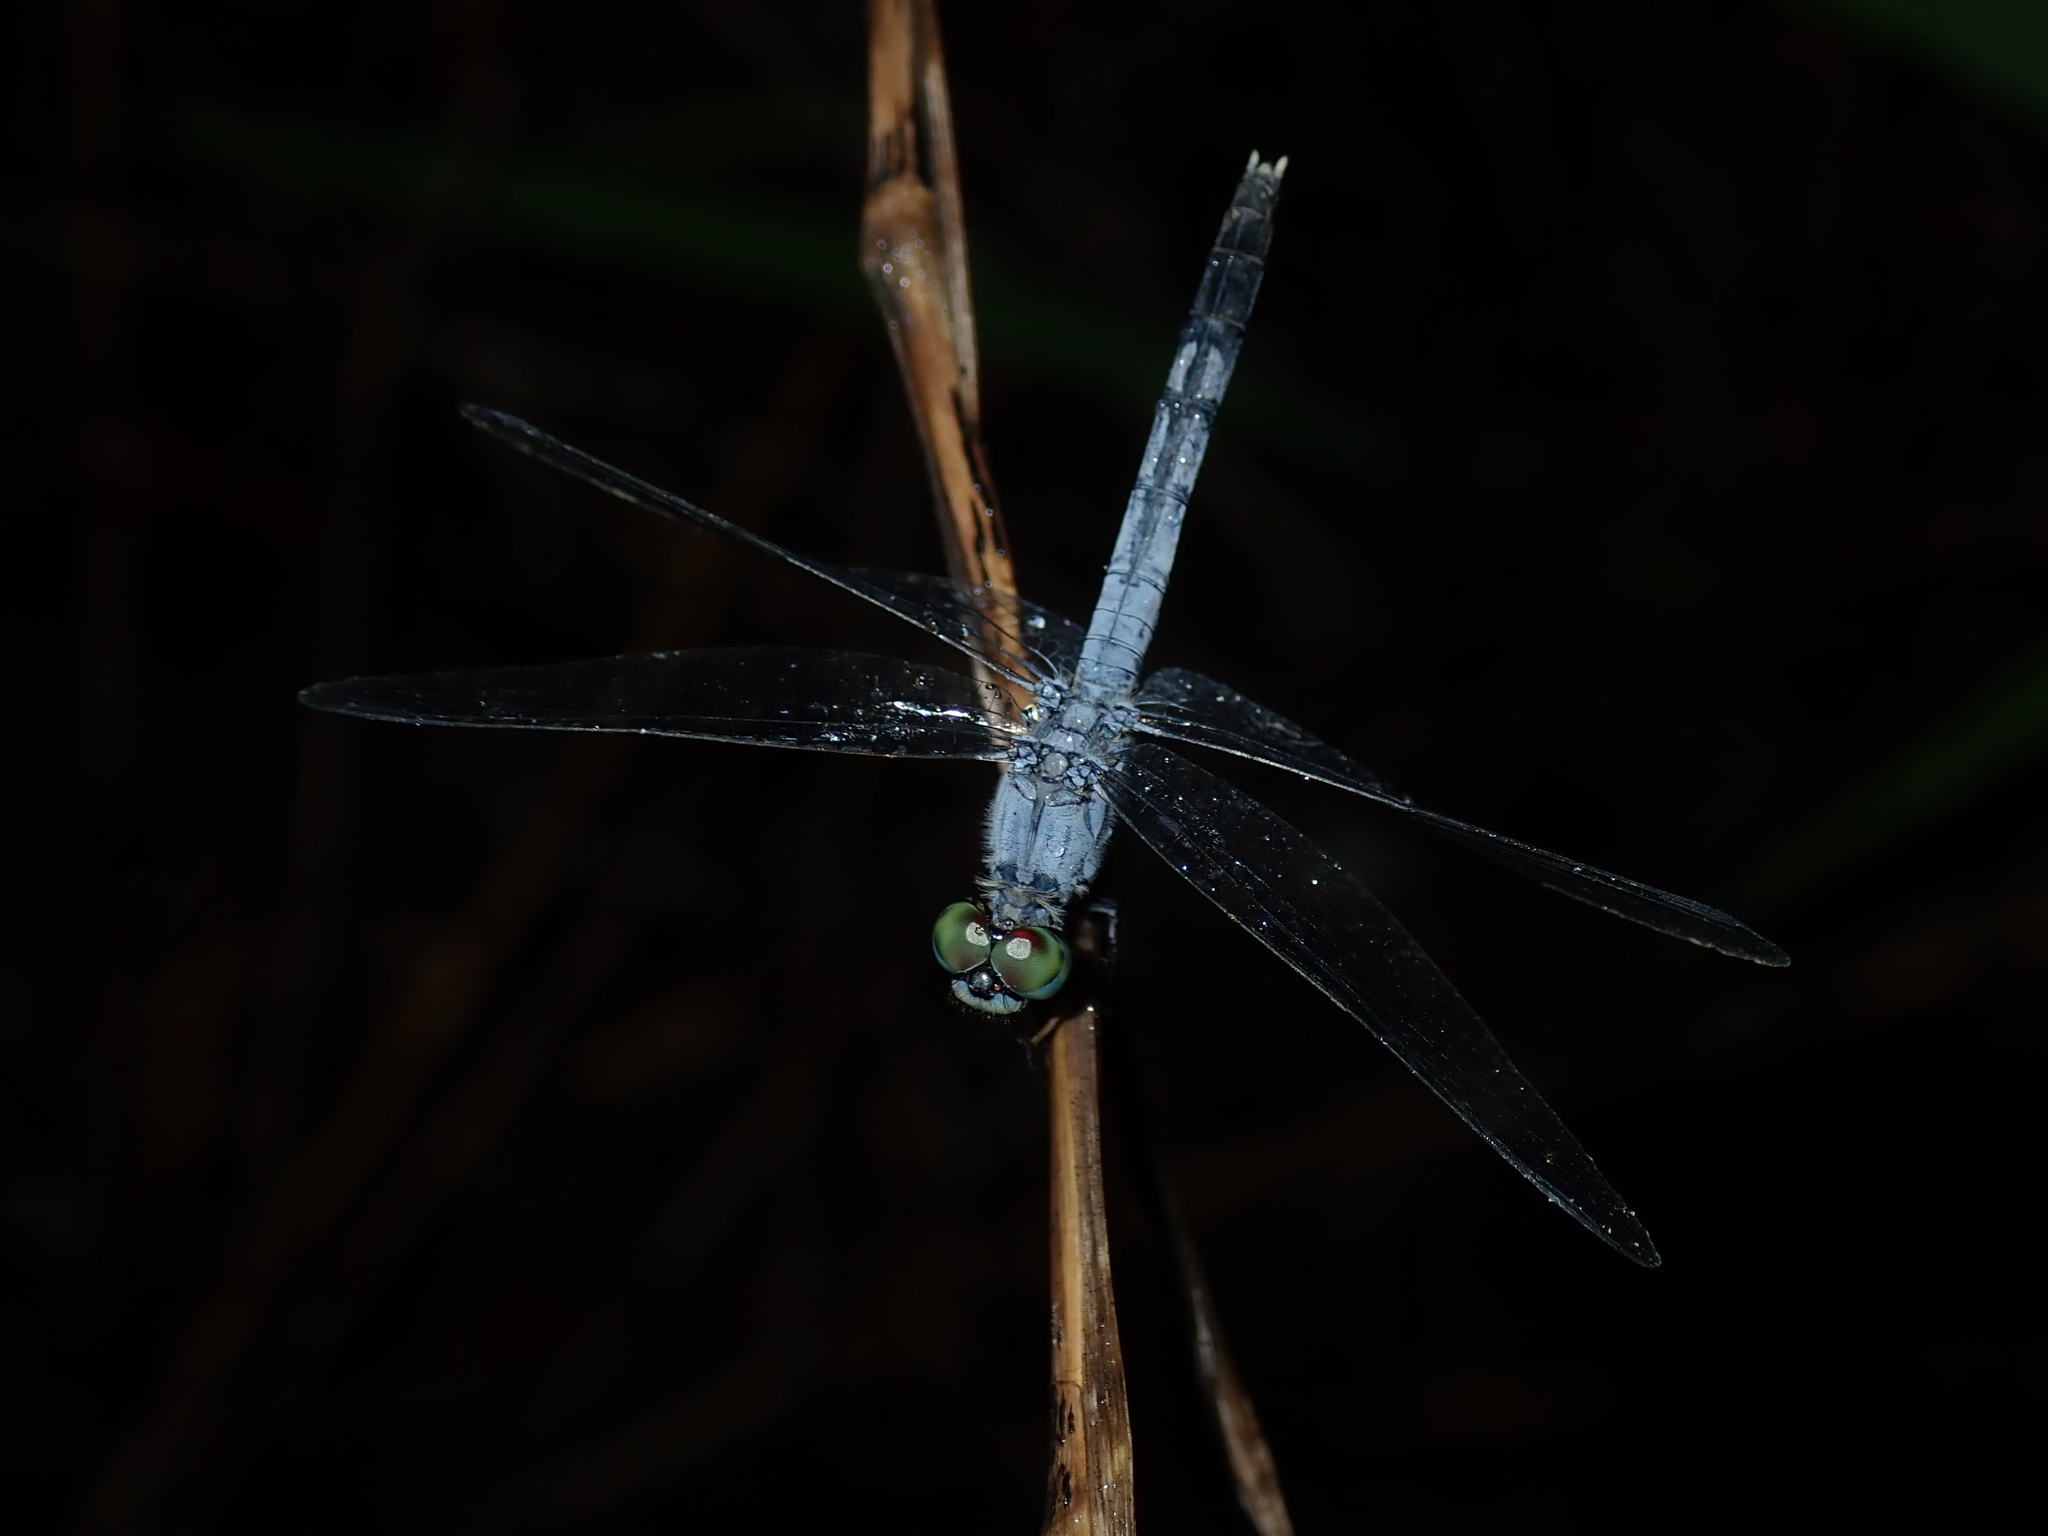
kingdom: Animalia
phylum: Arthropoda
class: Insecta
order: Odonata
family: Libellulidae
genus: Diplacodes
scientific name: Diplacodes trivialis
